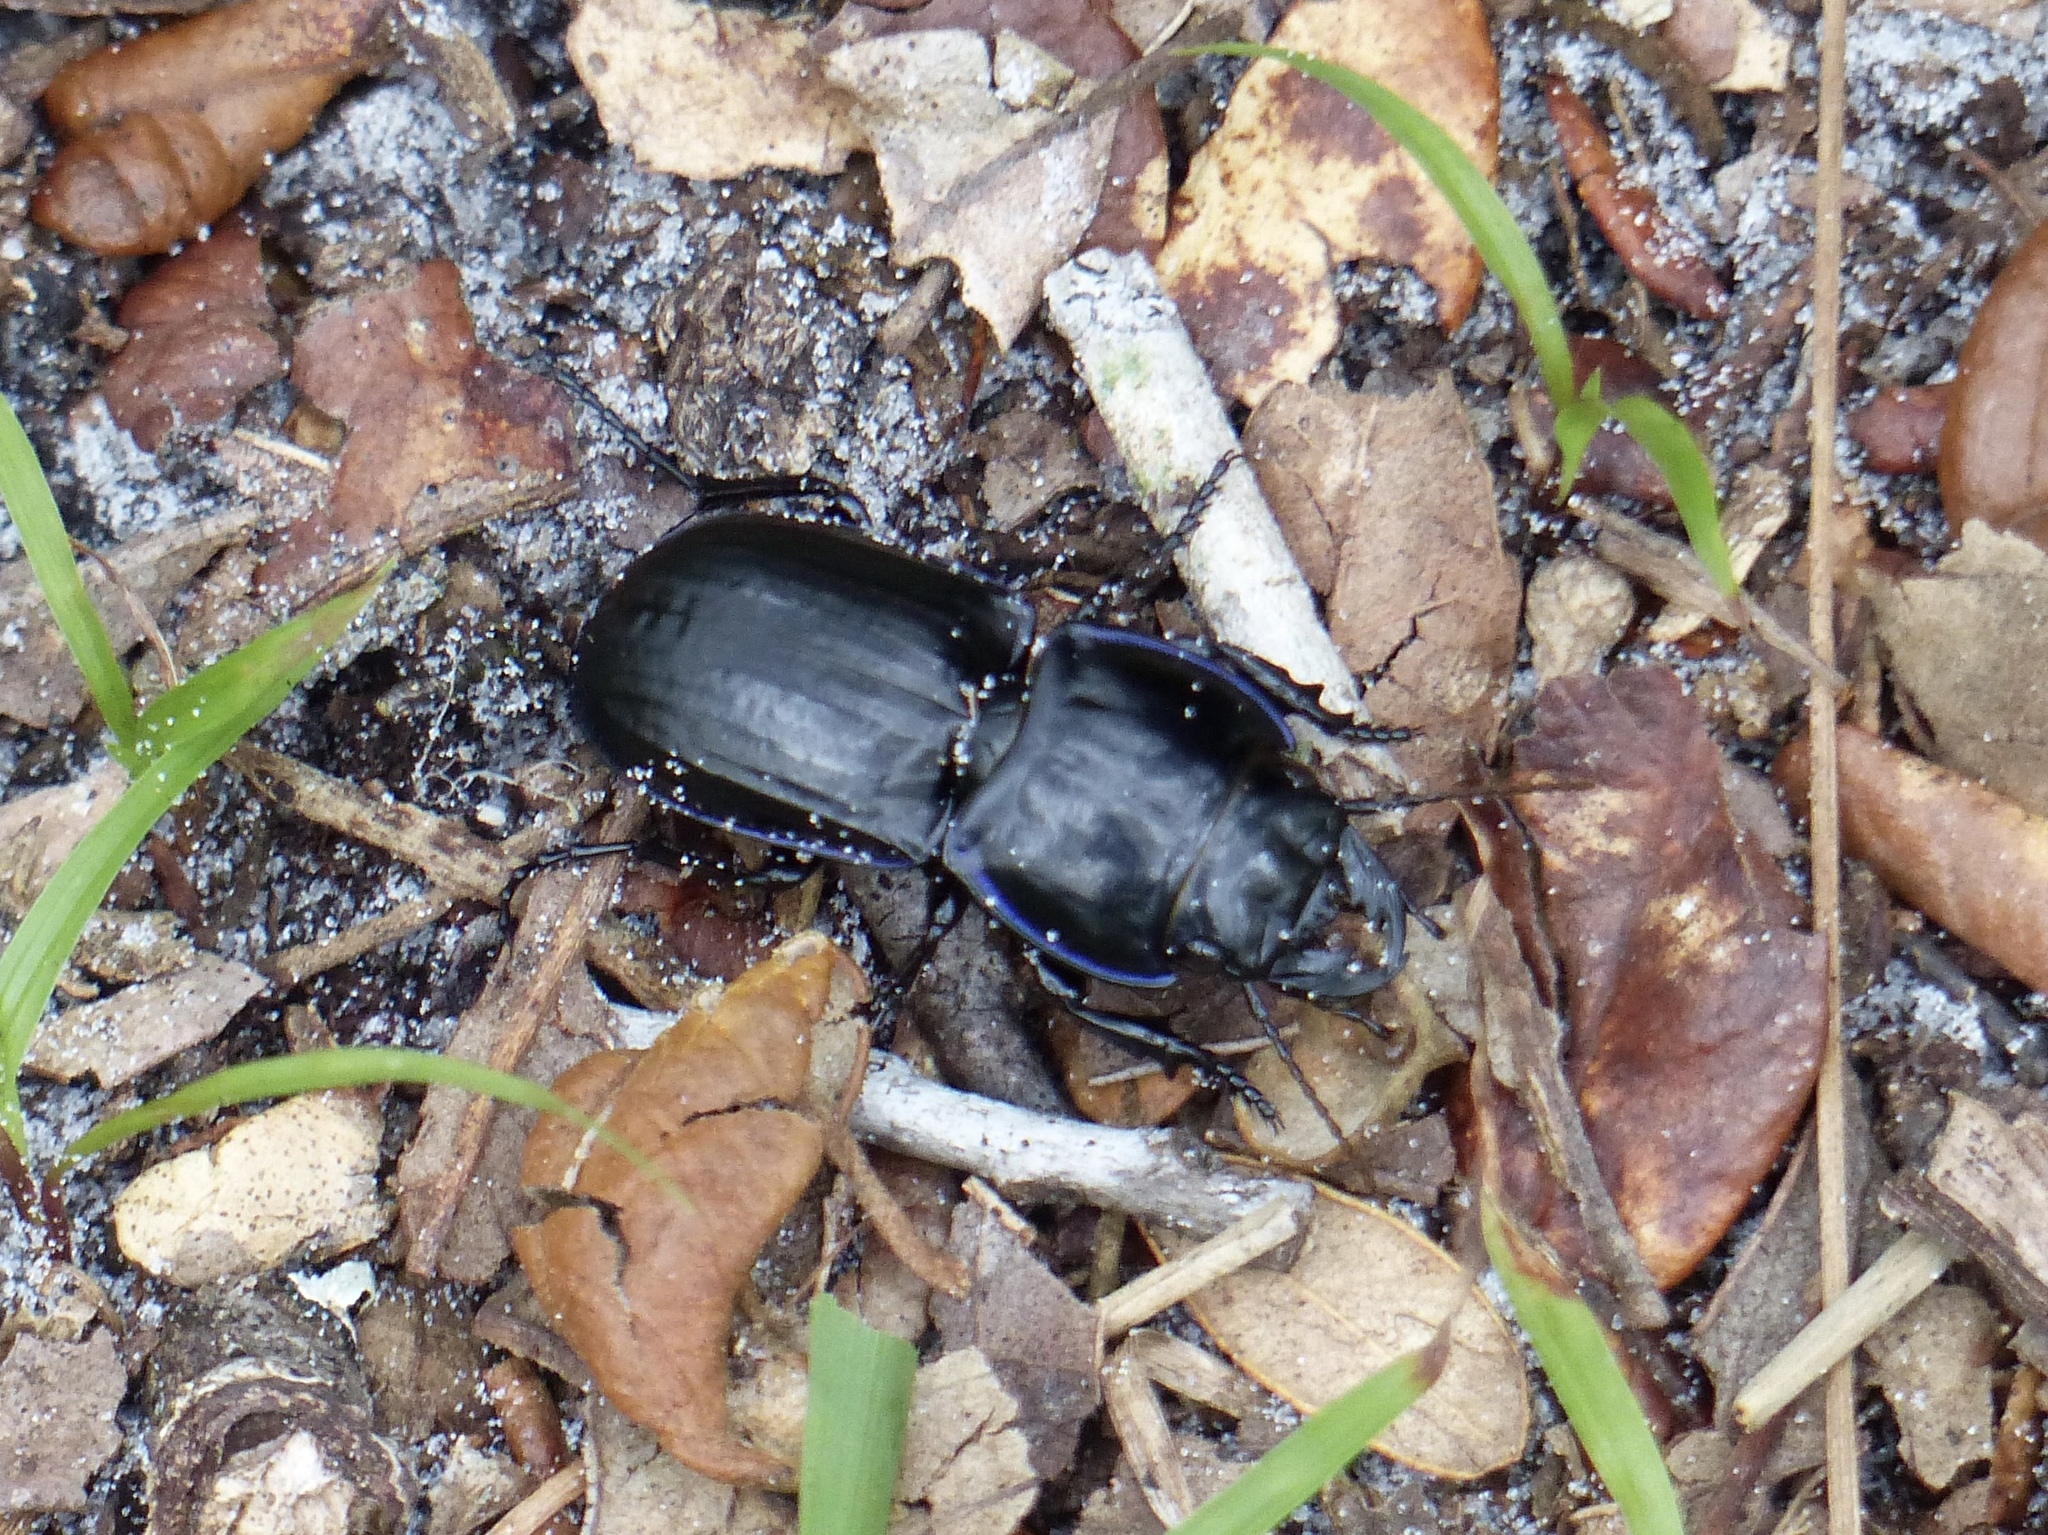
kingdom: Animalia
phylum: Arthropoda
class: Insecta
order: Coleoptera
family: Carabidae
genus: Pasimachus
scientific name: Pasimachus sublaevis
